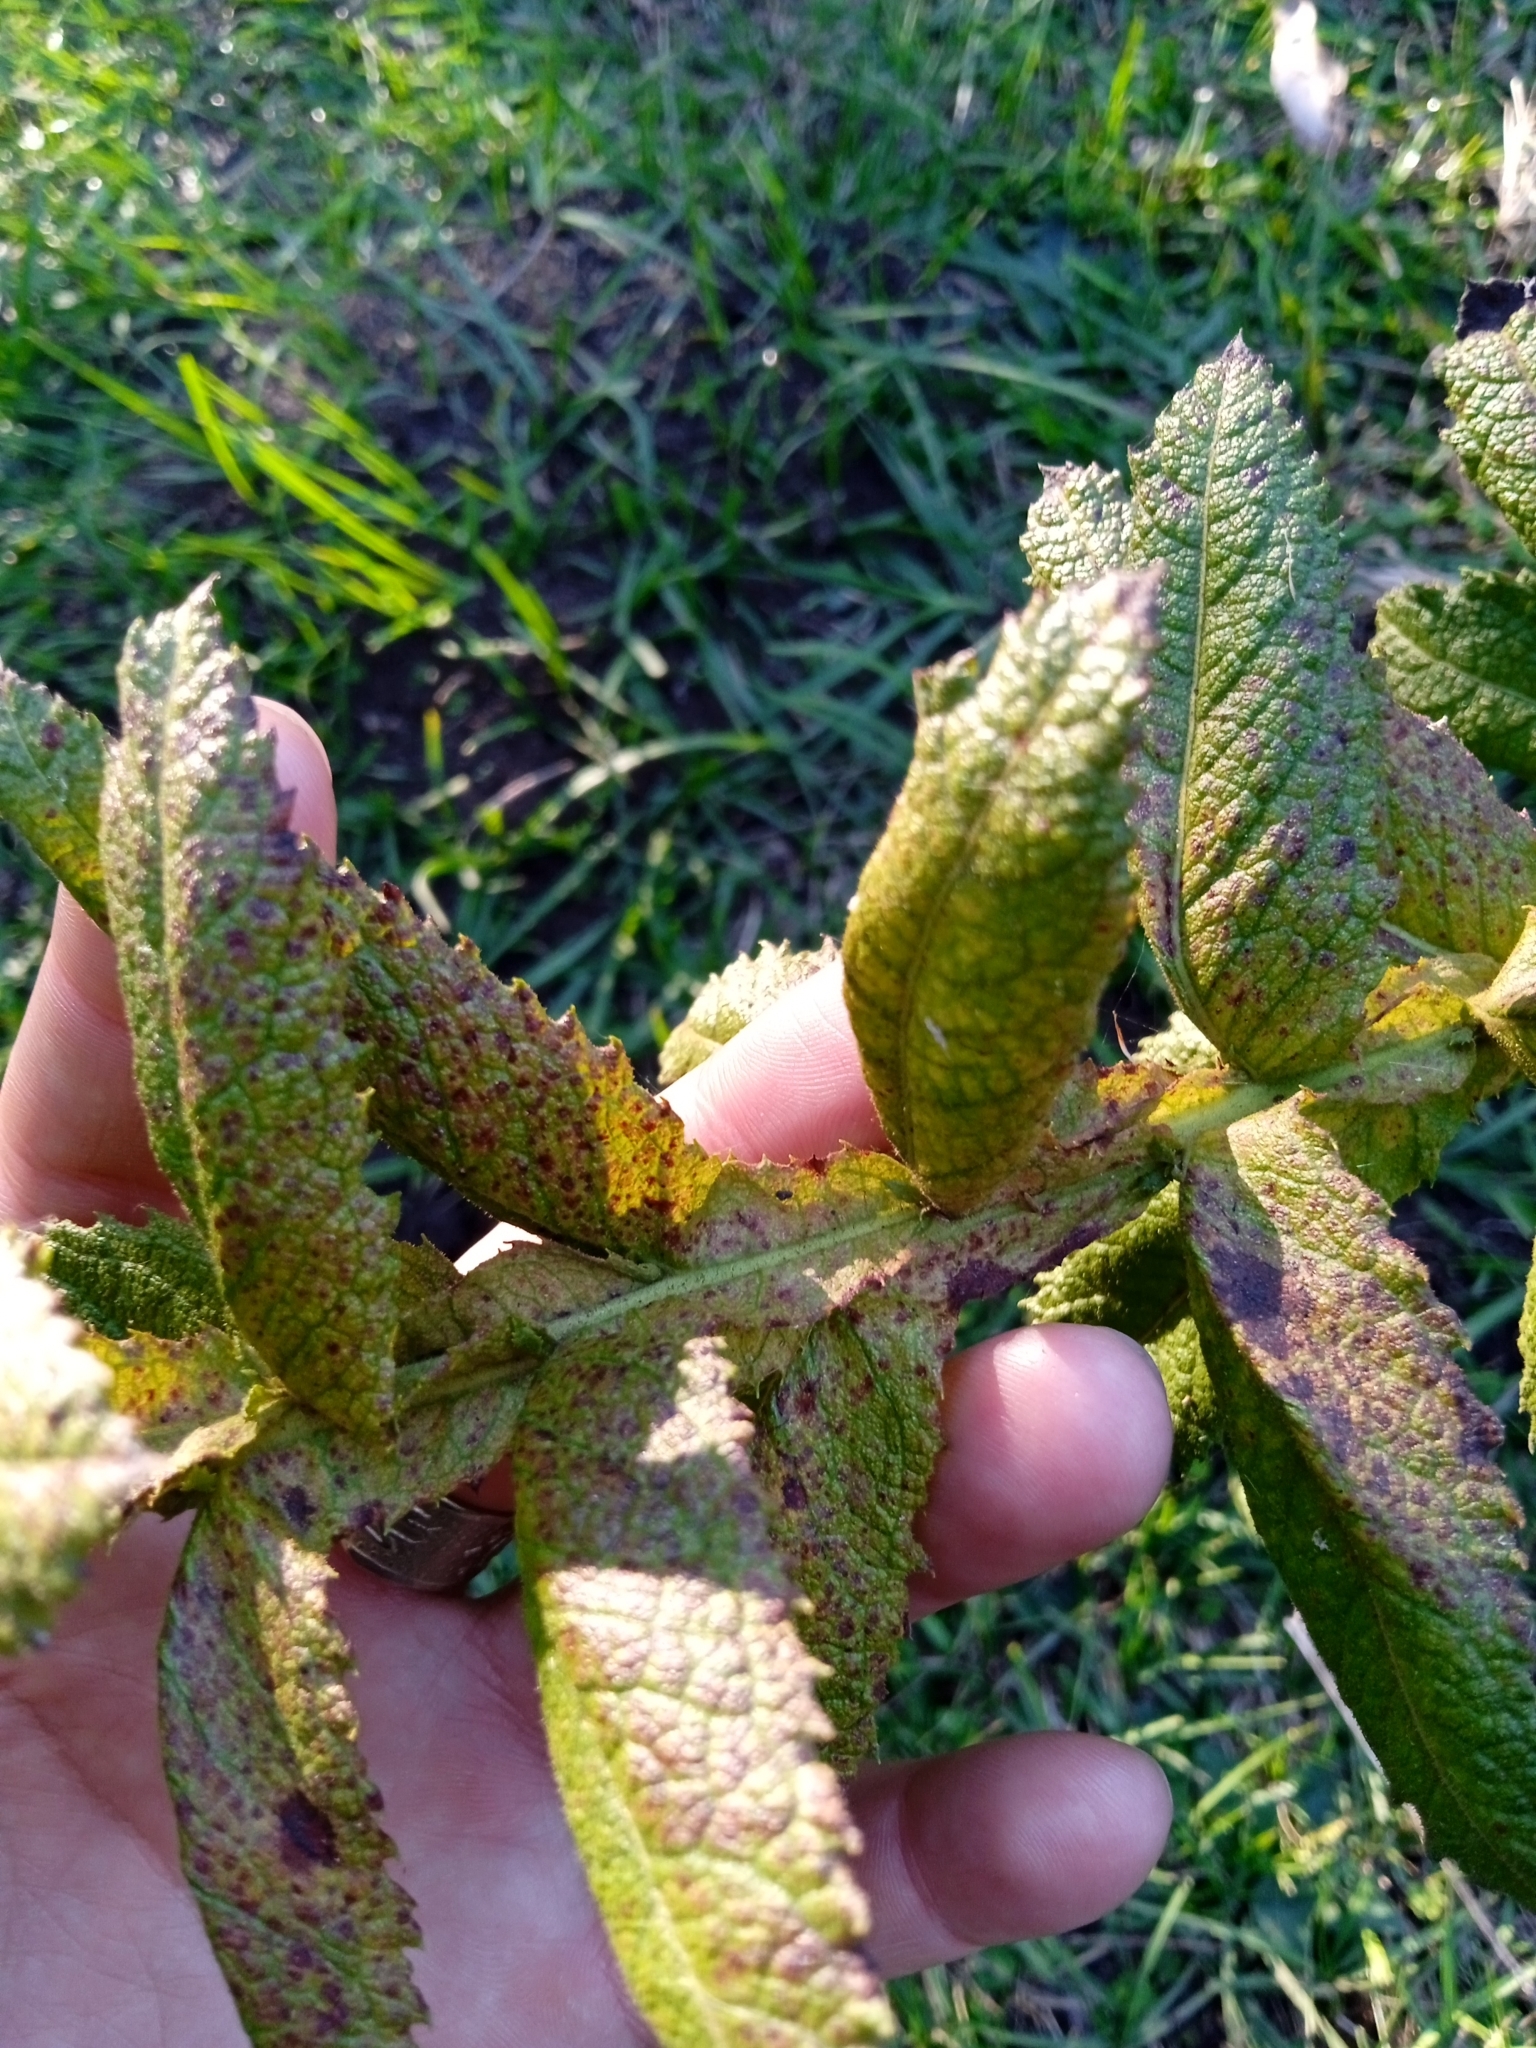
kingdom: Plantae
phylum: Tracheophyta
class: Magnoliopsida
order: Asterales
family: Asteraceae
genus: Pterocaulon
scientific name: Pterocaulon polystachyum
